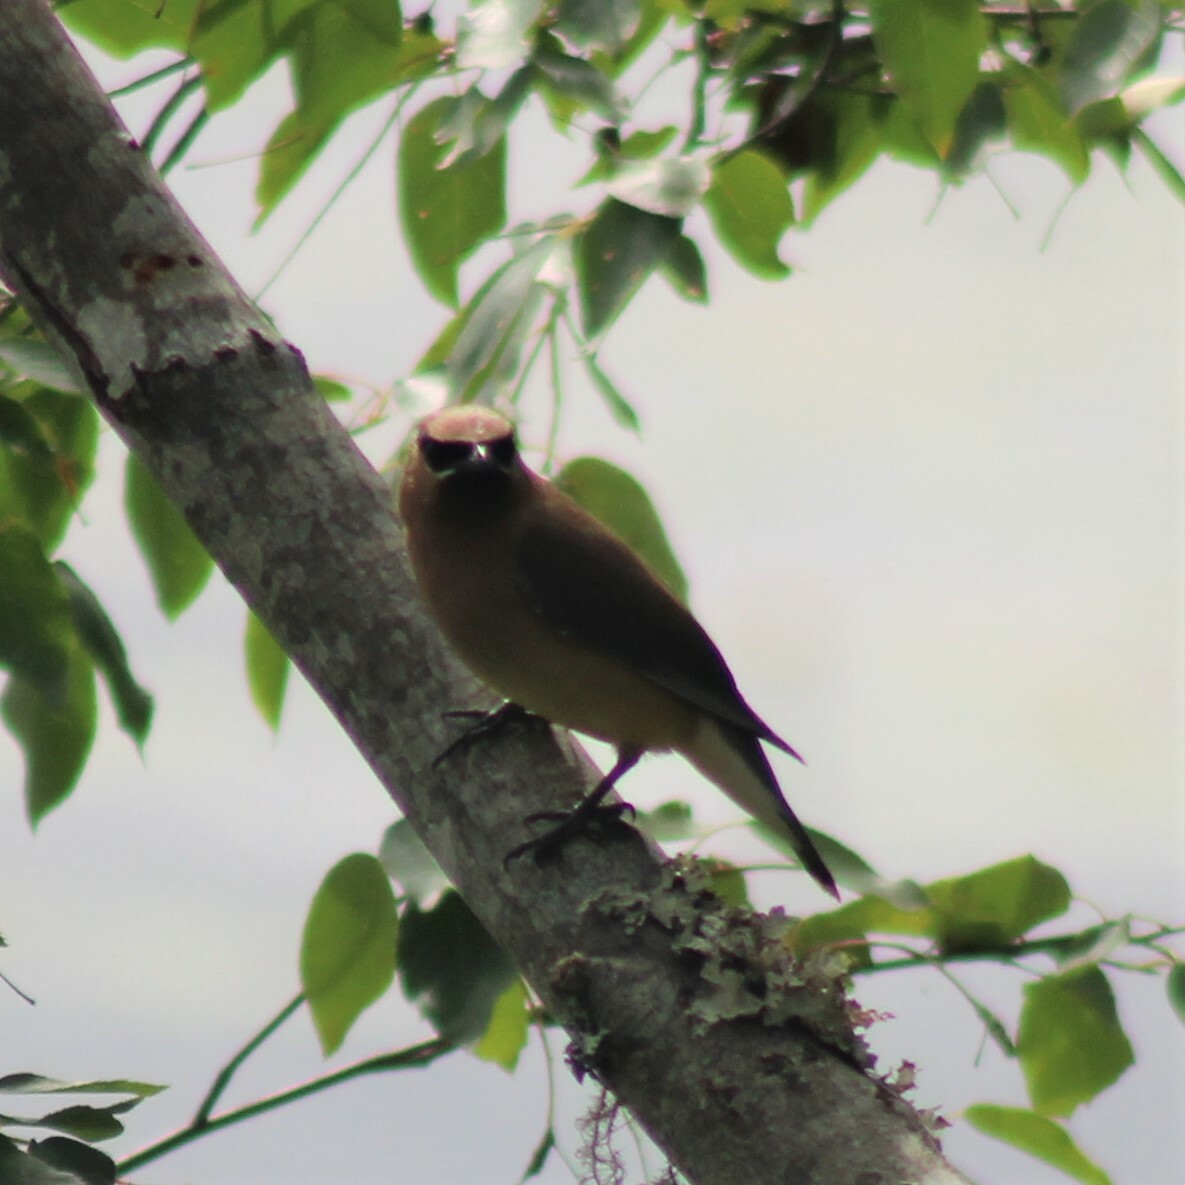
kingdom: Animalia
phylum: Chordata
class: Aves
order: Passeriformes
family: Bombycillidae
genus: Bombycilla
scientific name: Bombycilla cedrorum
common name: Cedar waxwing
